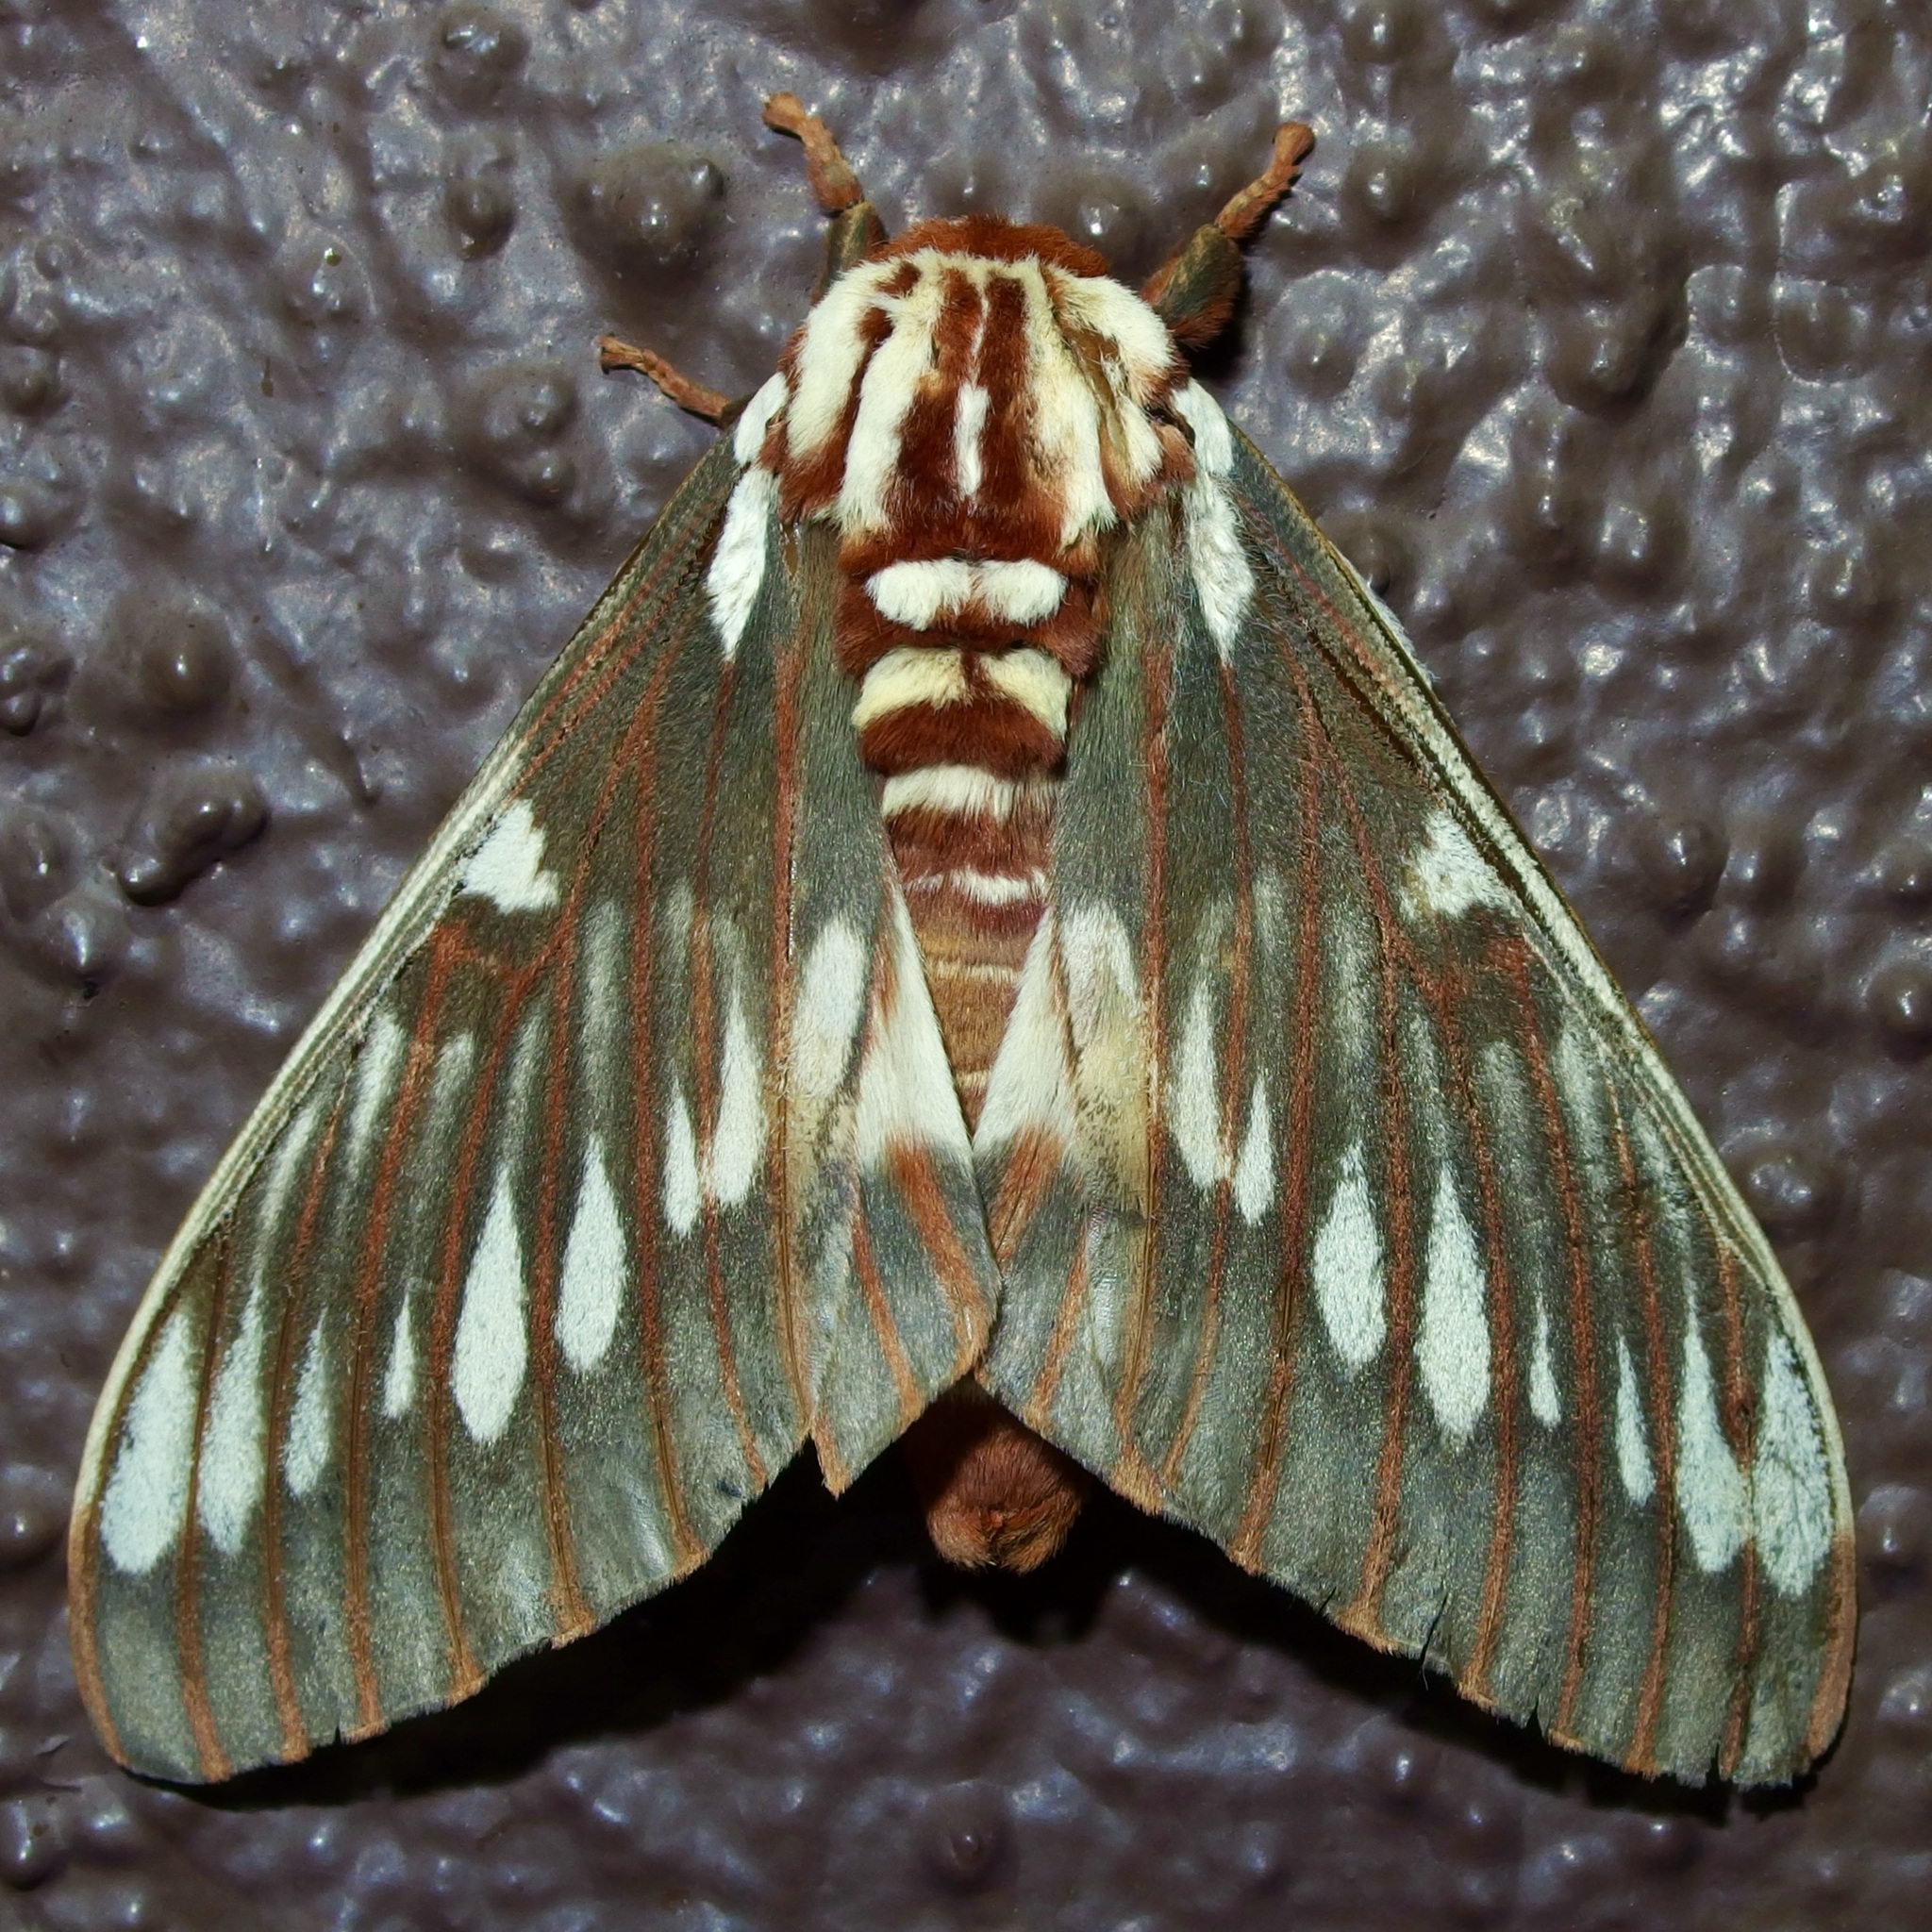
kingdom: Animalia
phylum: Arthropoda
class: Insecta
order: Lepidoptera
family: Saturniidae
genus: Citheronia
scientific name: Citheronia splendens
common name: Splendid royal moth
